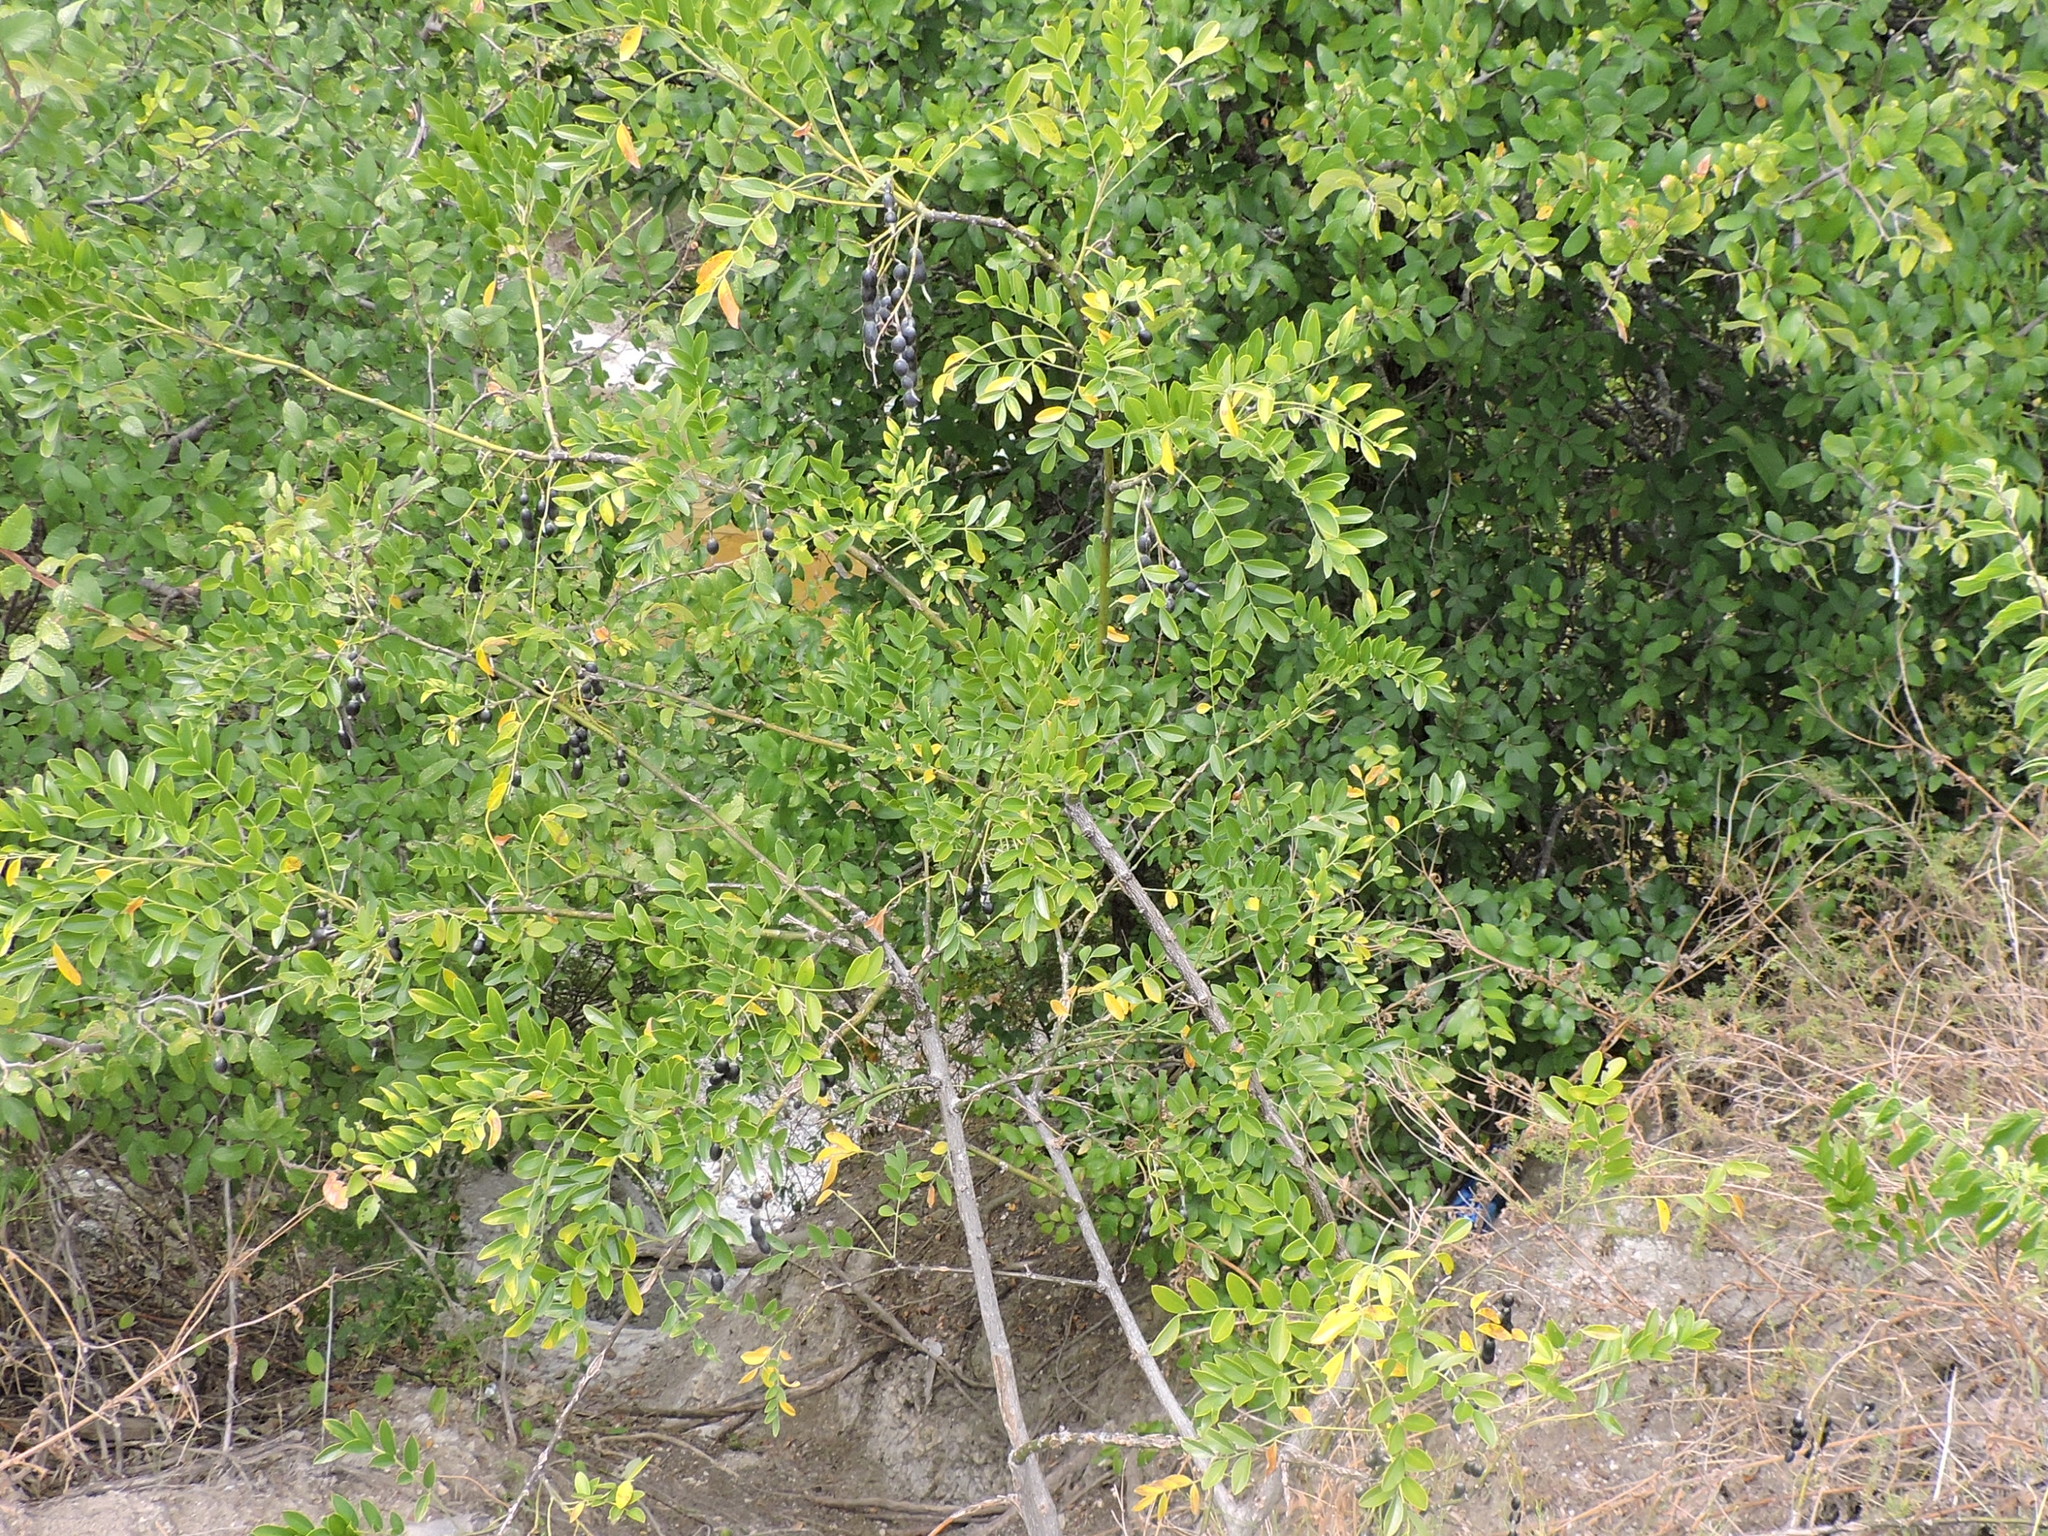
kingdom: Plantae
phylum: Tracheophyta
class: Magnoliopsida
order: Fabales
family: Fabaceae
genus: Styphnolobium
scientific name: Styphnolobium affine
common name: Texas sophora
